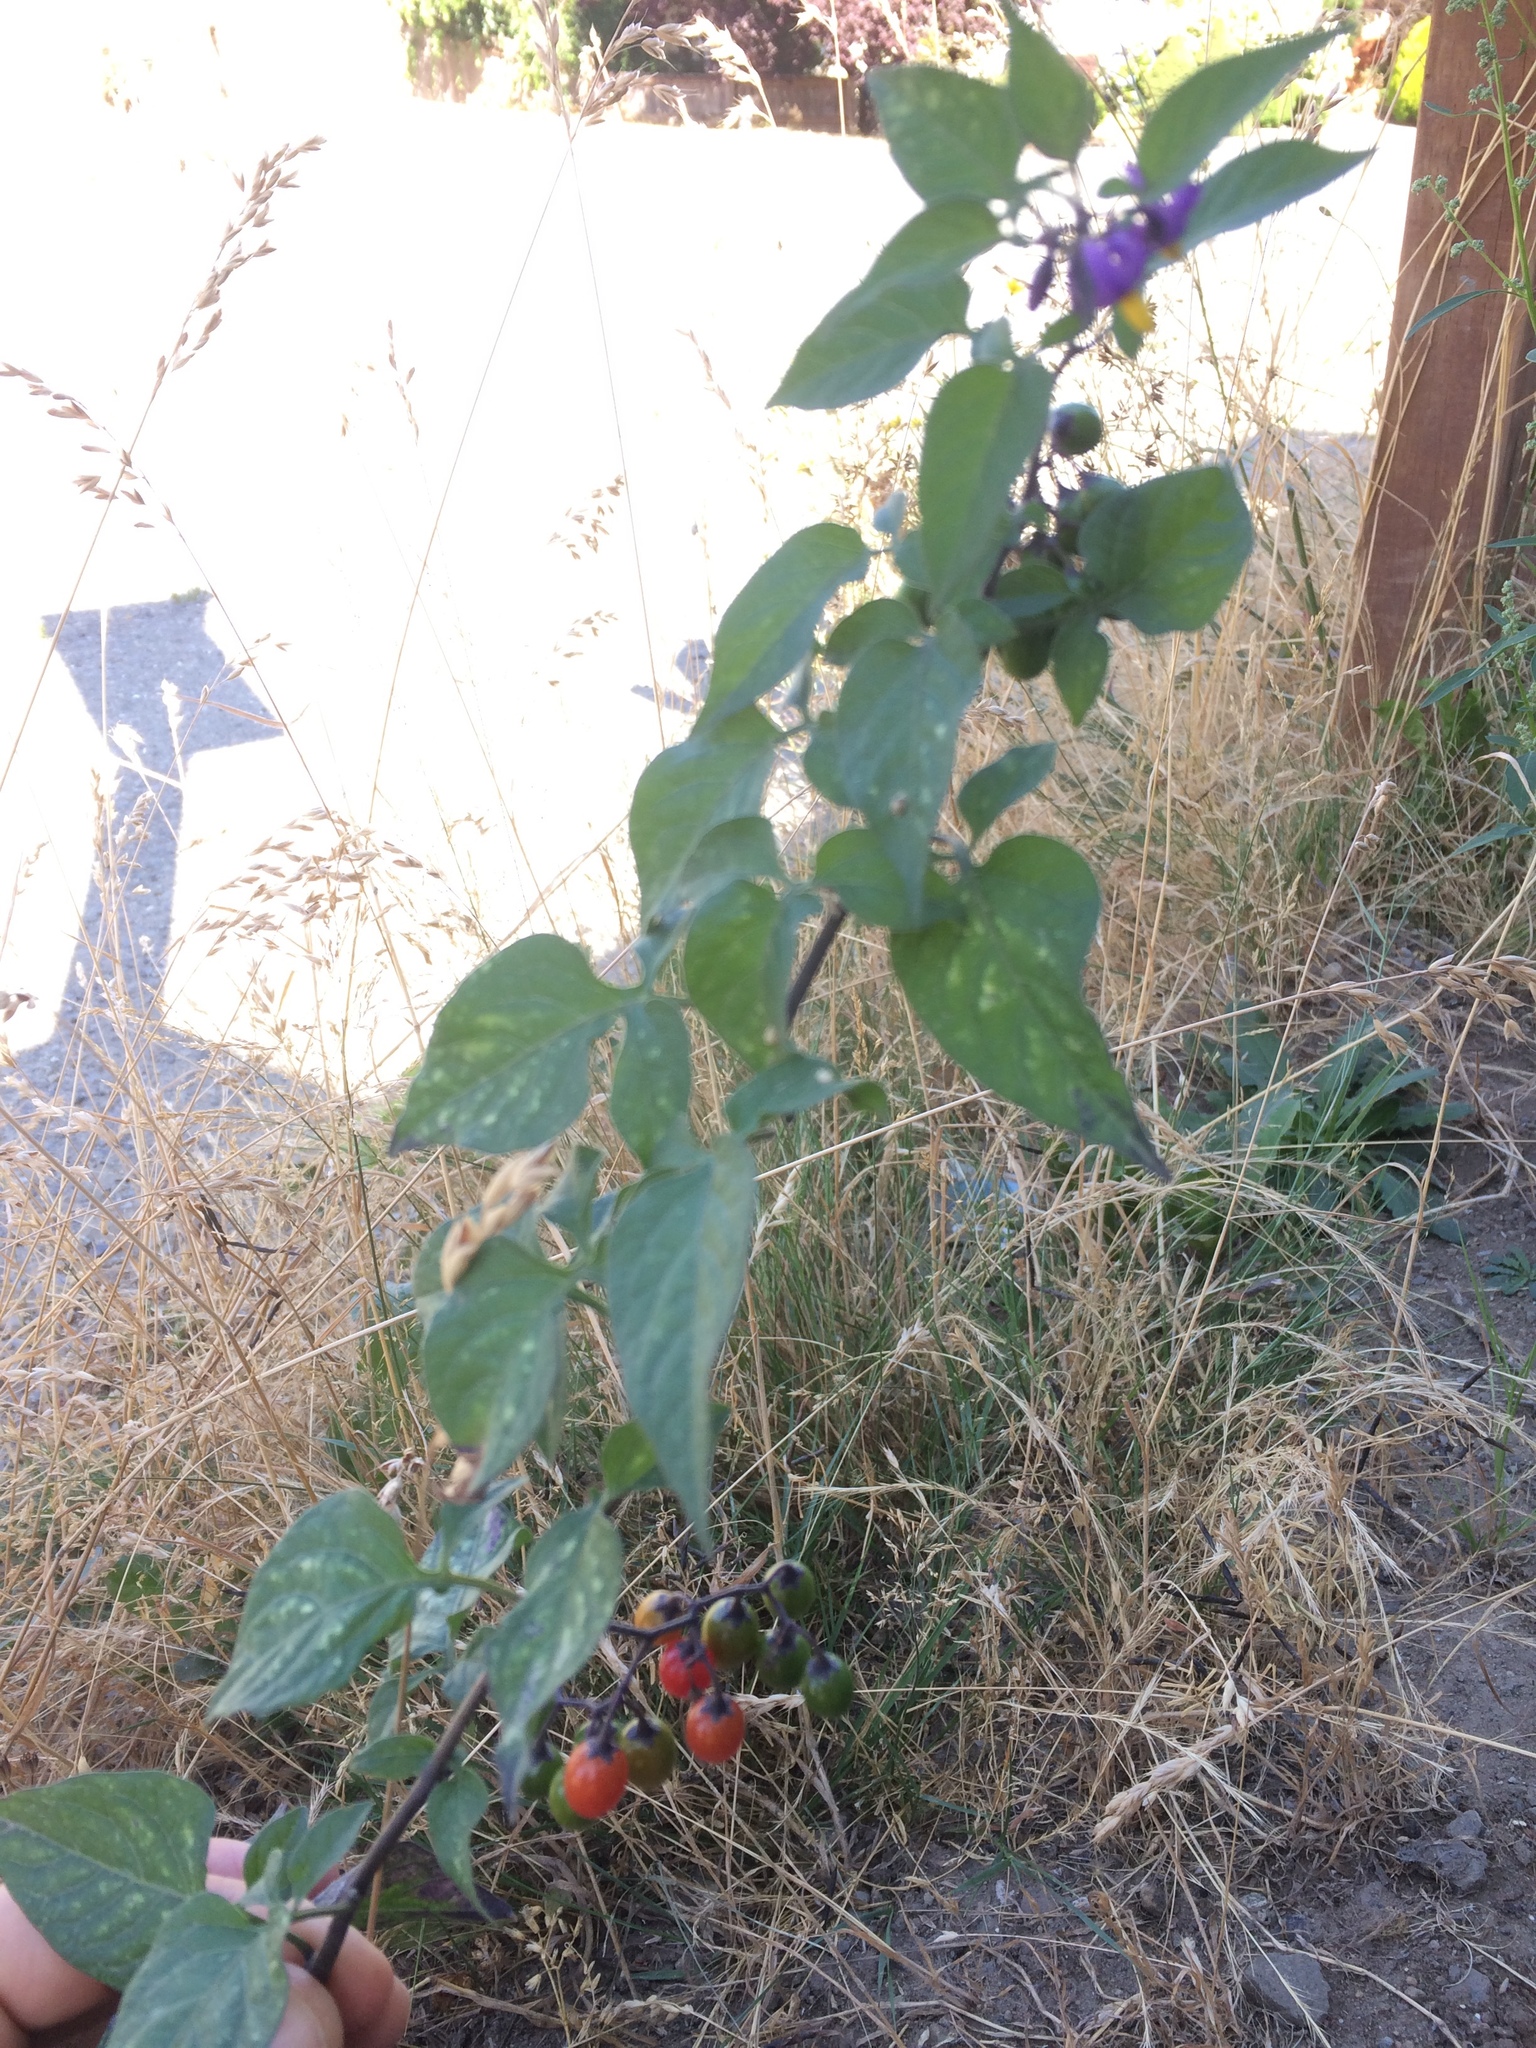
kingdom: Plantae
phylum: Tracheophyta
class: Magnoliopsida
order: Solanales
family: Solanaceae
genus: Solanum
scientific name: Solanum dulcamara
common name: Climbing nightshade
